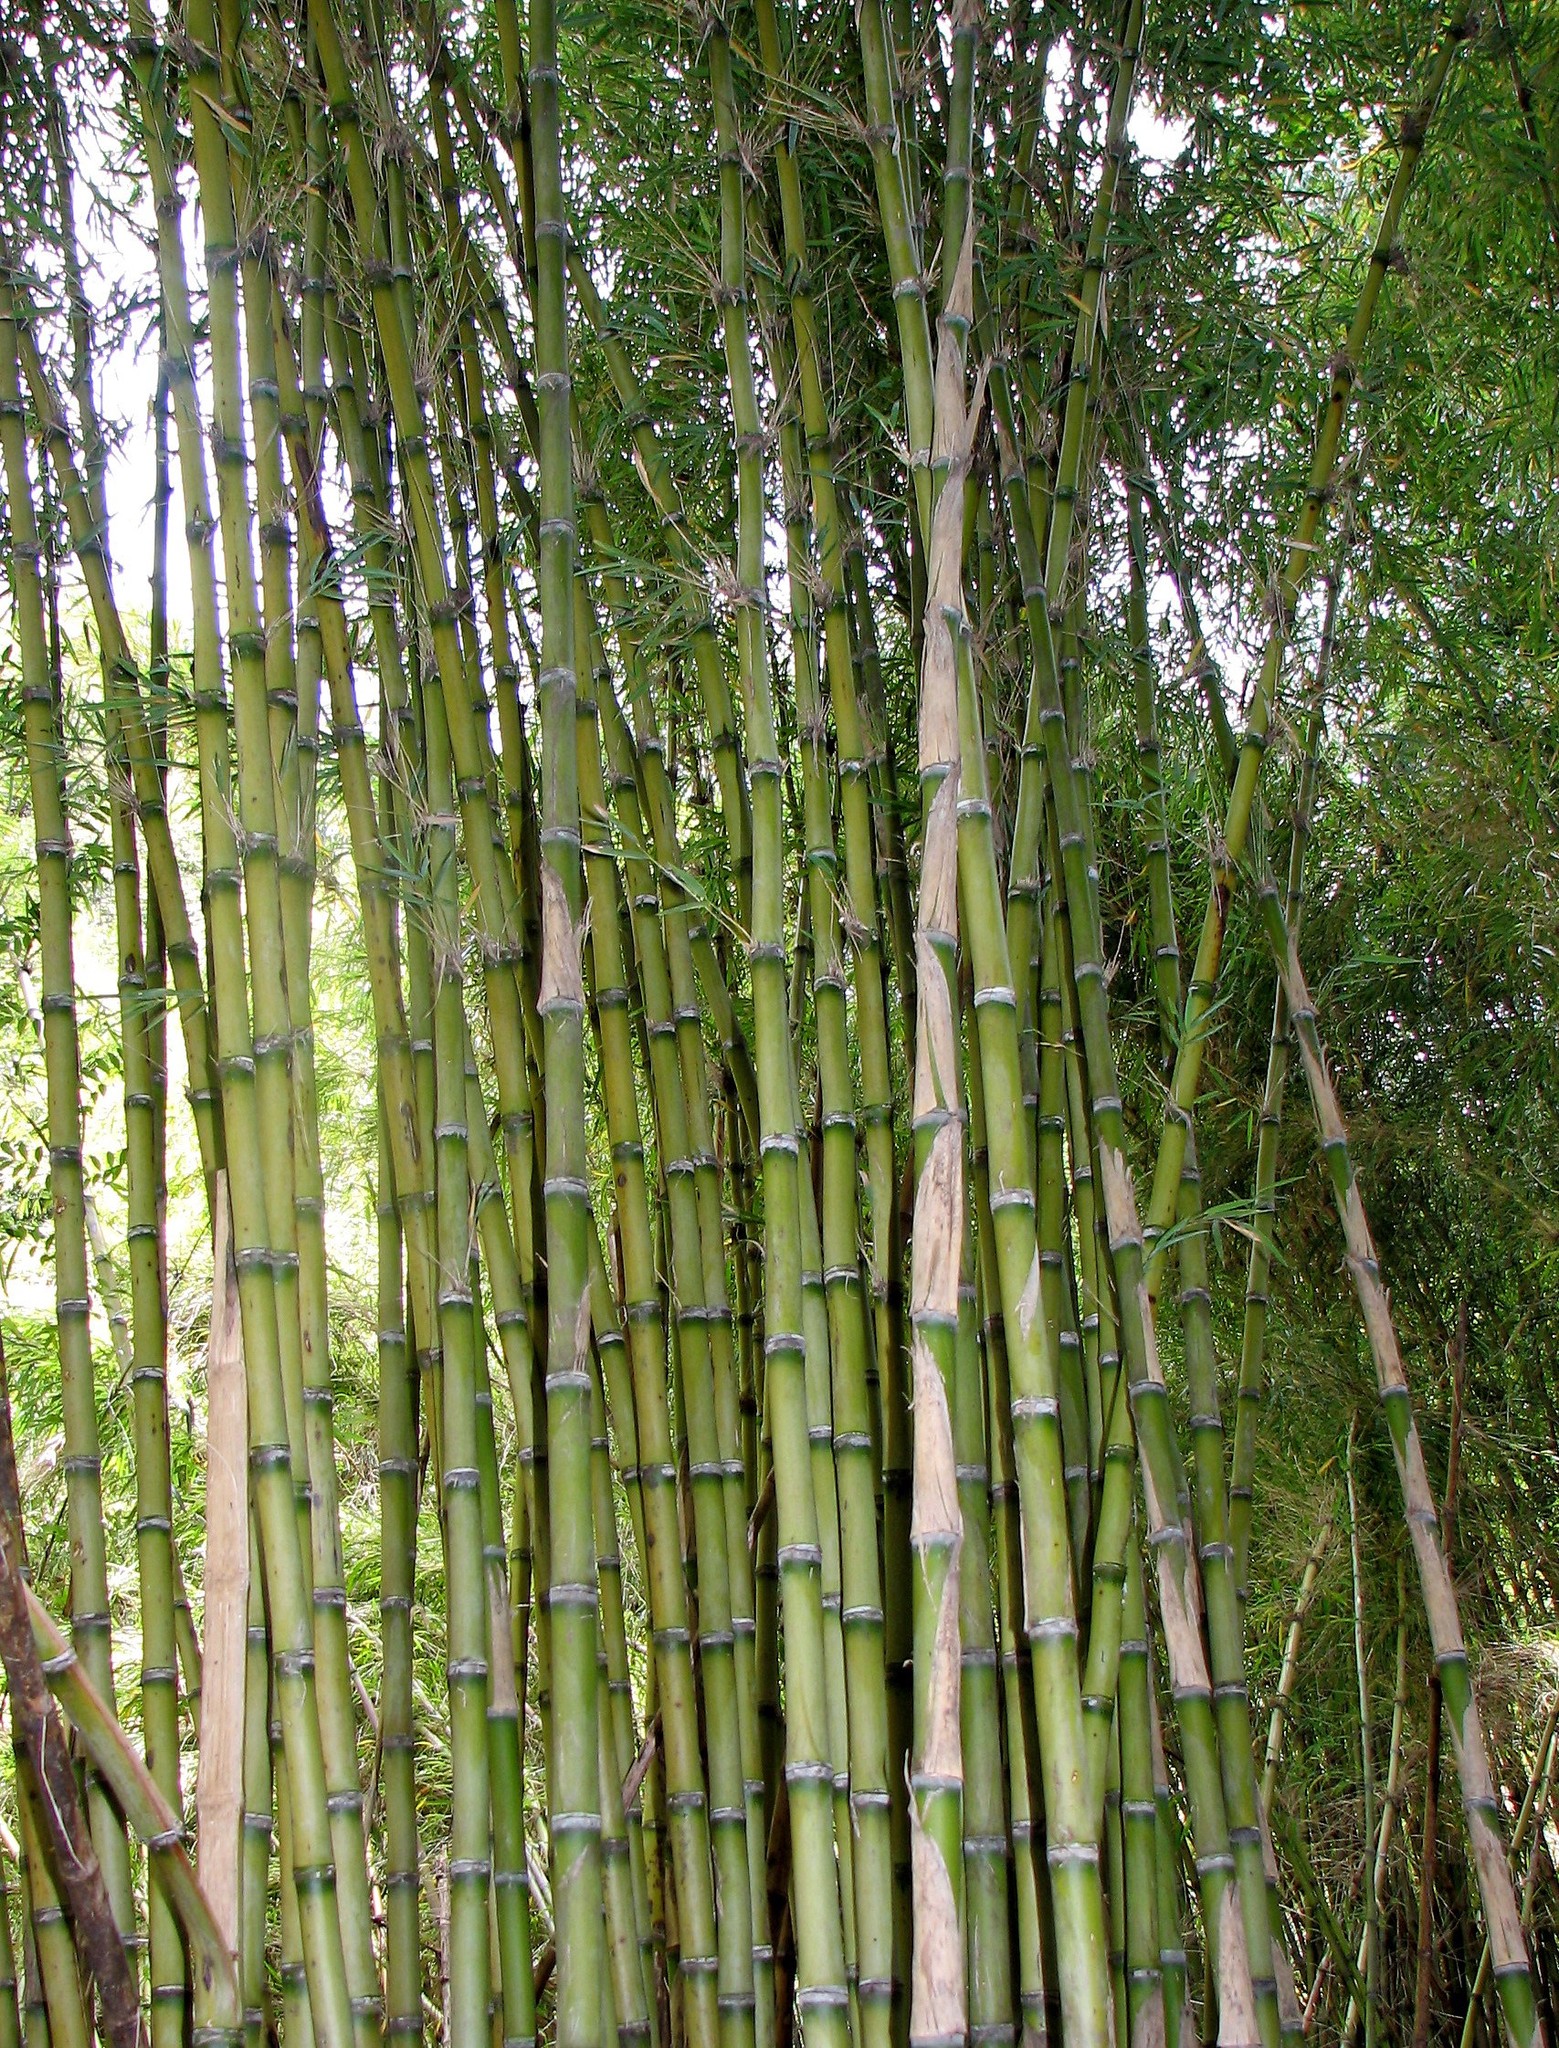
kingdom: Plantae
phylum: Tracheophyta
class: Liliopsida
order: Poales
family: Poaceae
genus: Chusquea
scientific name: Chusquea culeou
